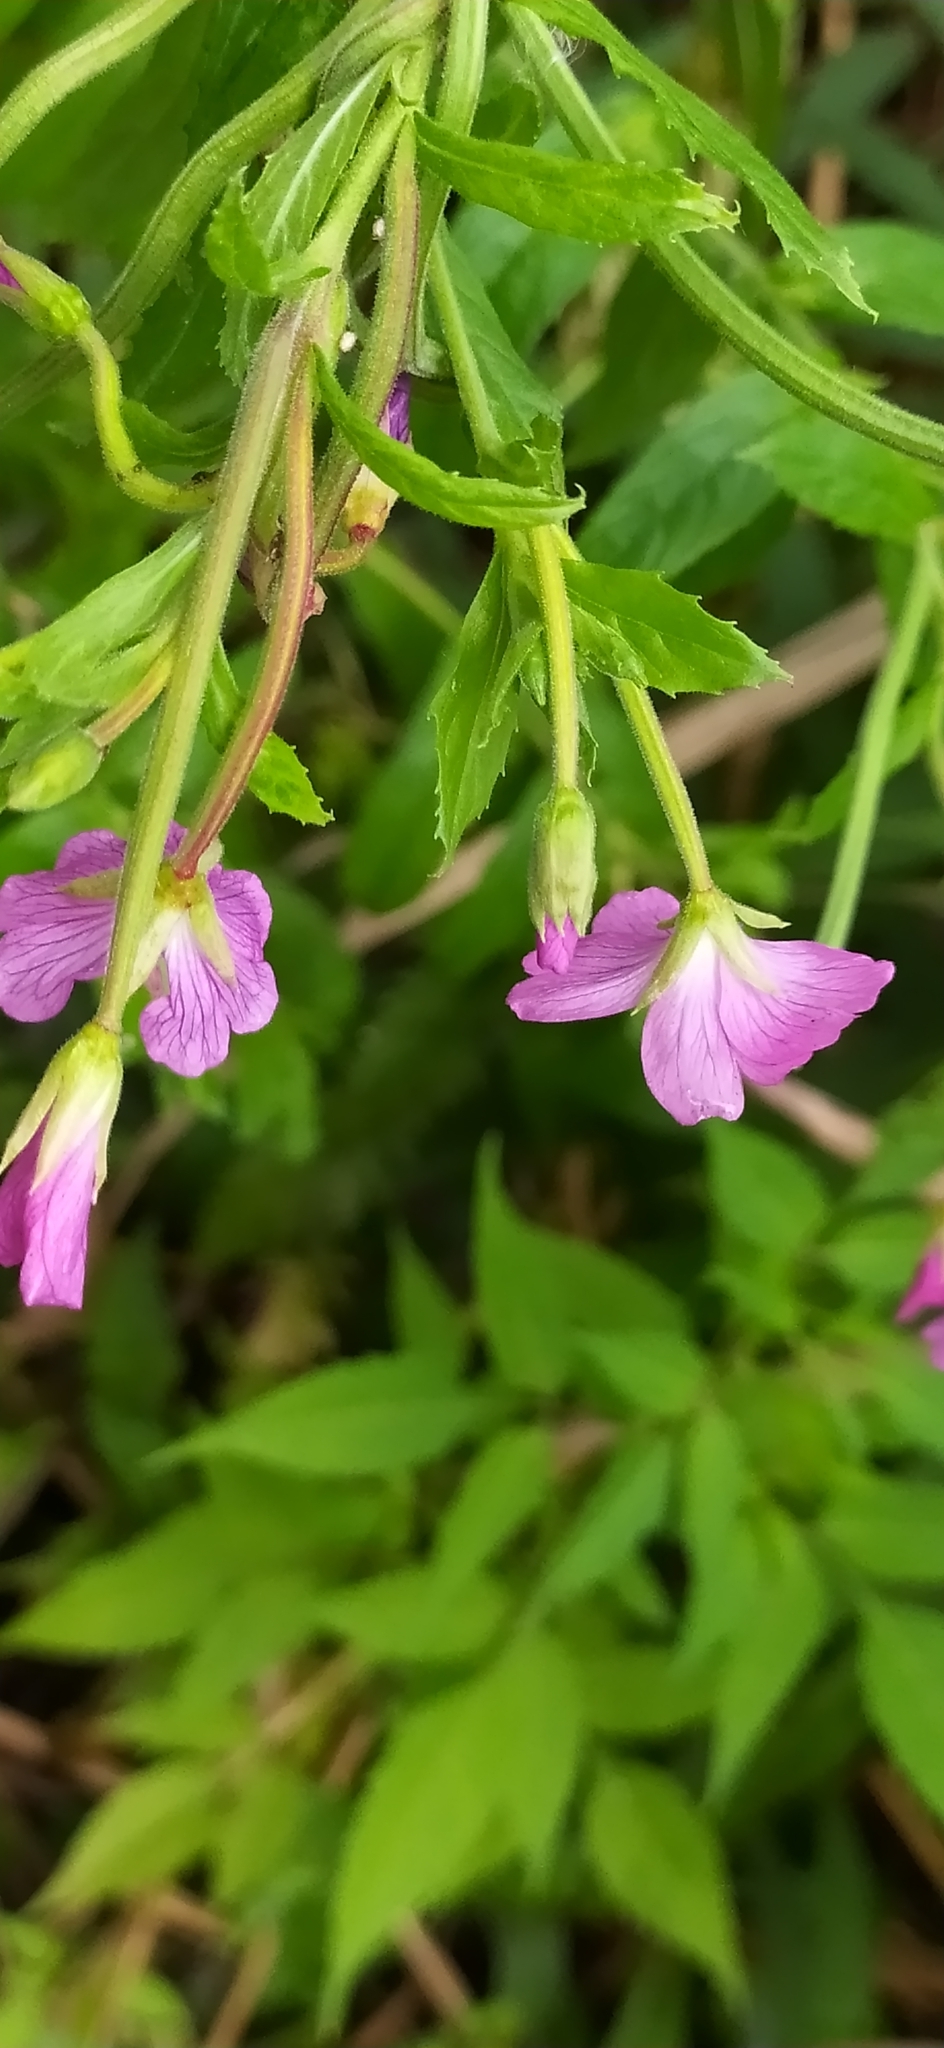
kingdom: Plantae
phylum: Tracheophyta
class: Magnoliopsida
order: Myrtales
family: Onagraceae
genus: Epilobium
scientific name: Epilobium hirsutum
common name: Great willowherb
